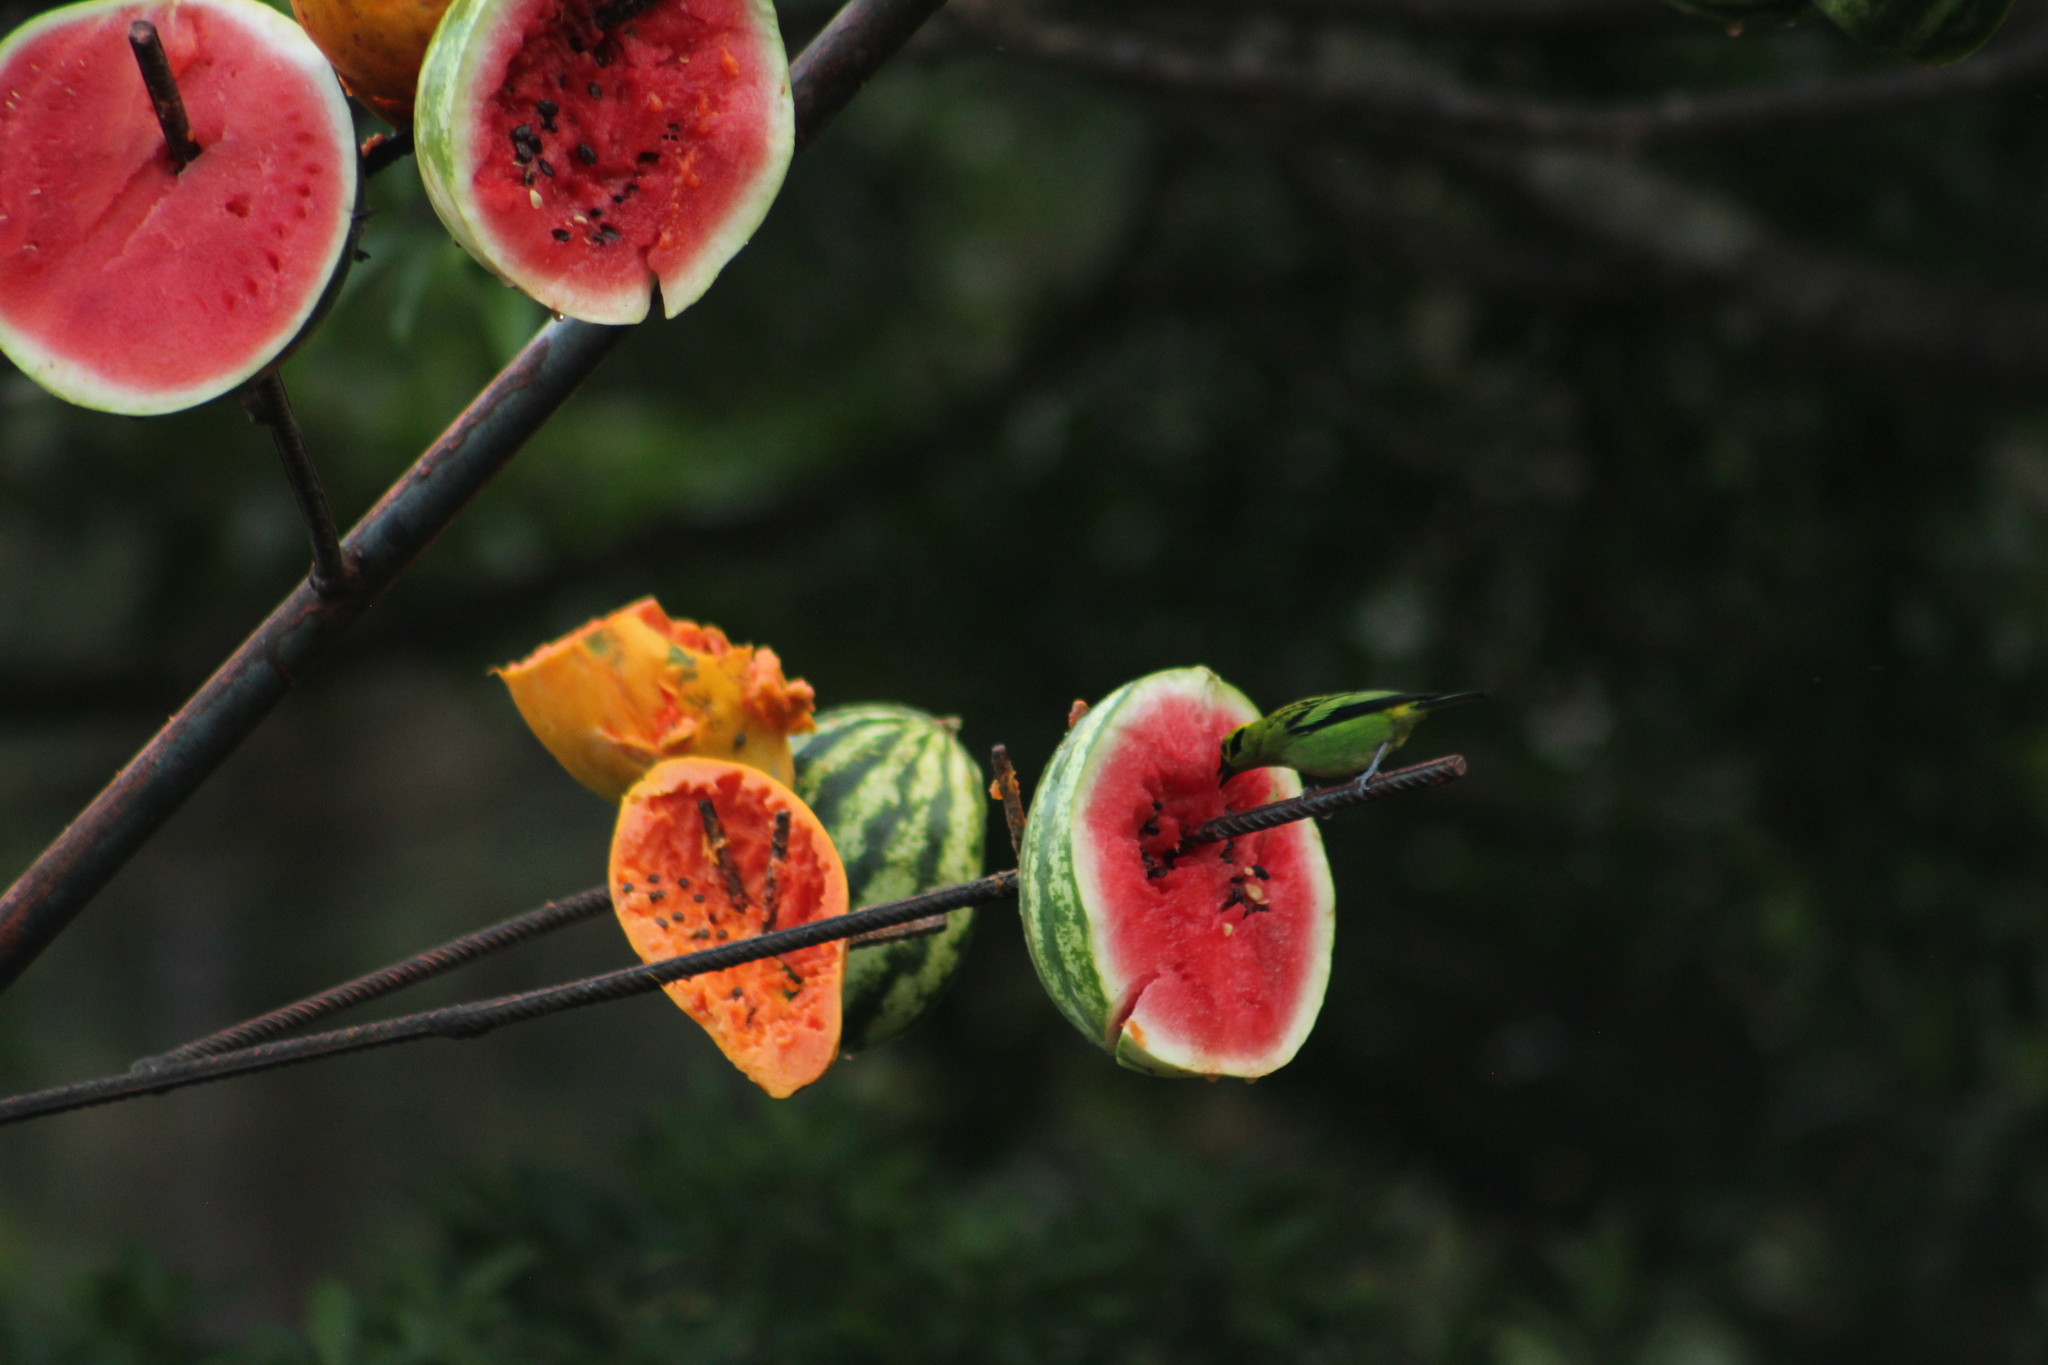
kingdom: Animalia
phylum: Chordata
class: Aves
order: Passeriformes
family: Thraupidae
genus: Tangara
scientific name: Tangara florida
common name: Emerald tanager
